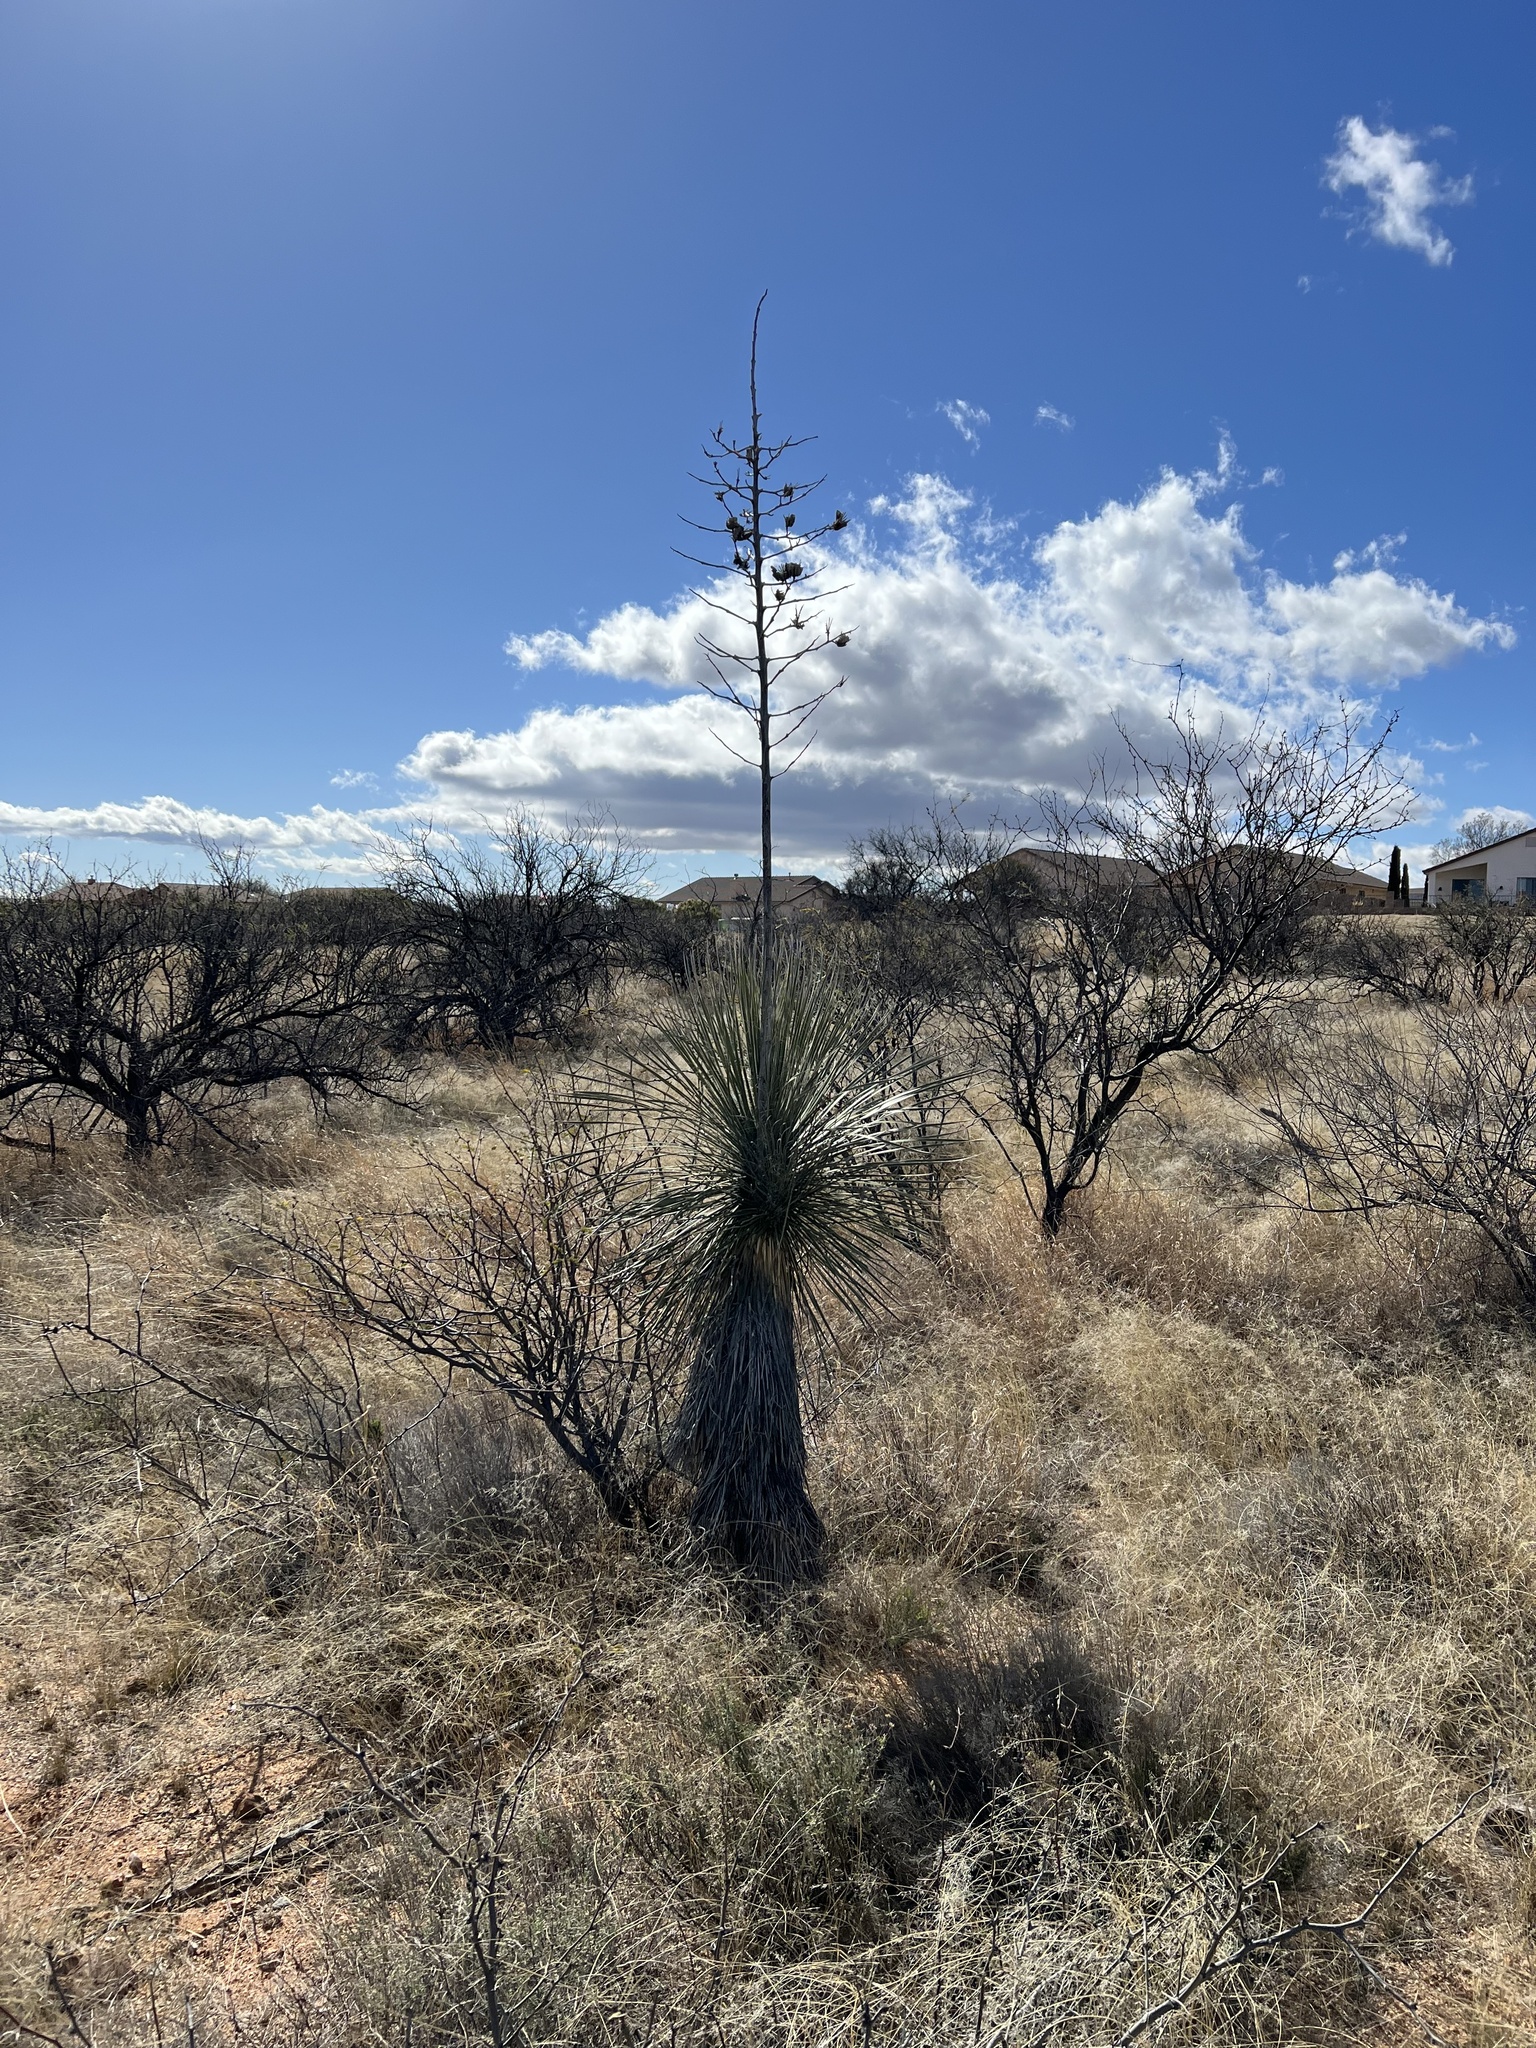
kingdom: Plantae
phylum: Tracheophyta
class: Liliopsida
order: Asparagales
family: Asparagaceae
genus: Yucca
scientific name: Yucca elata
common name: Palmella
